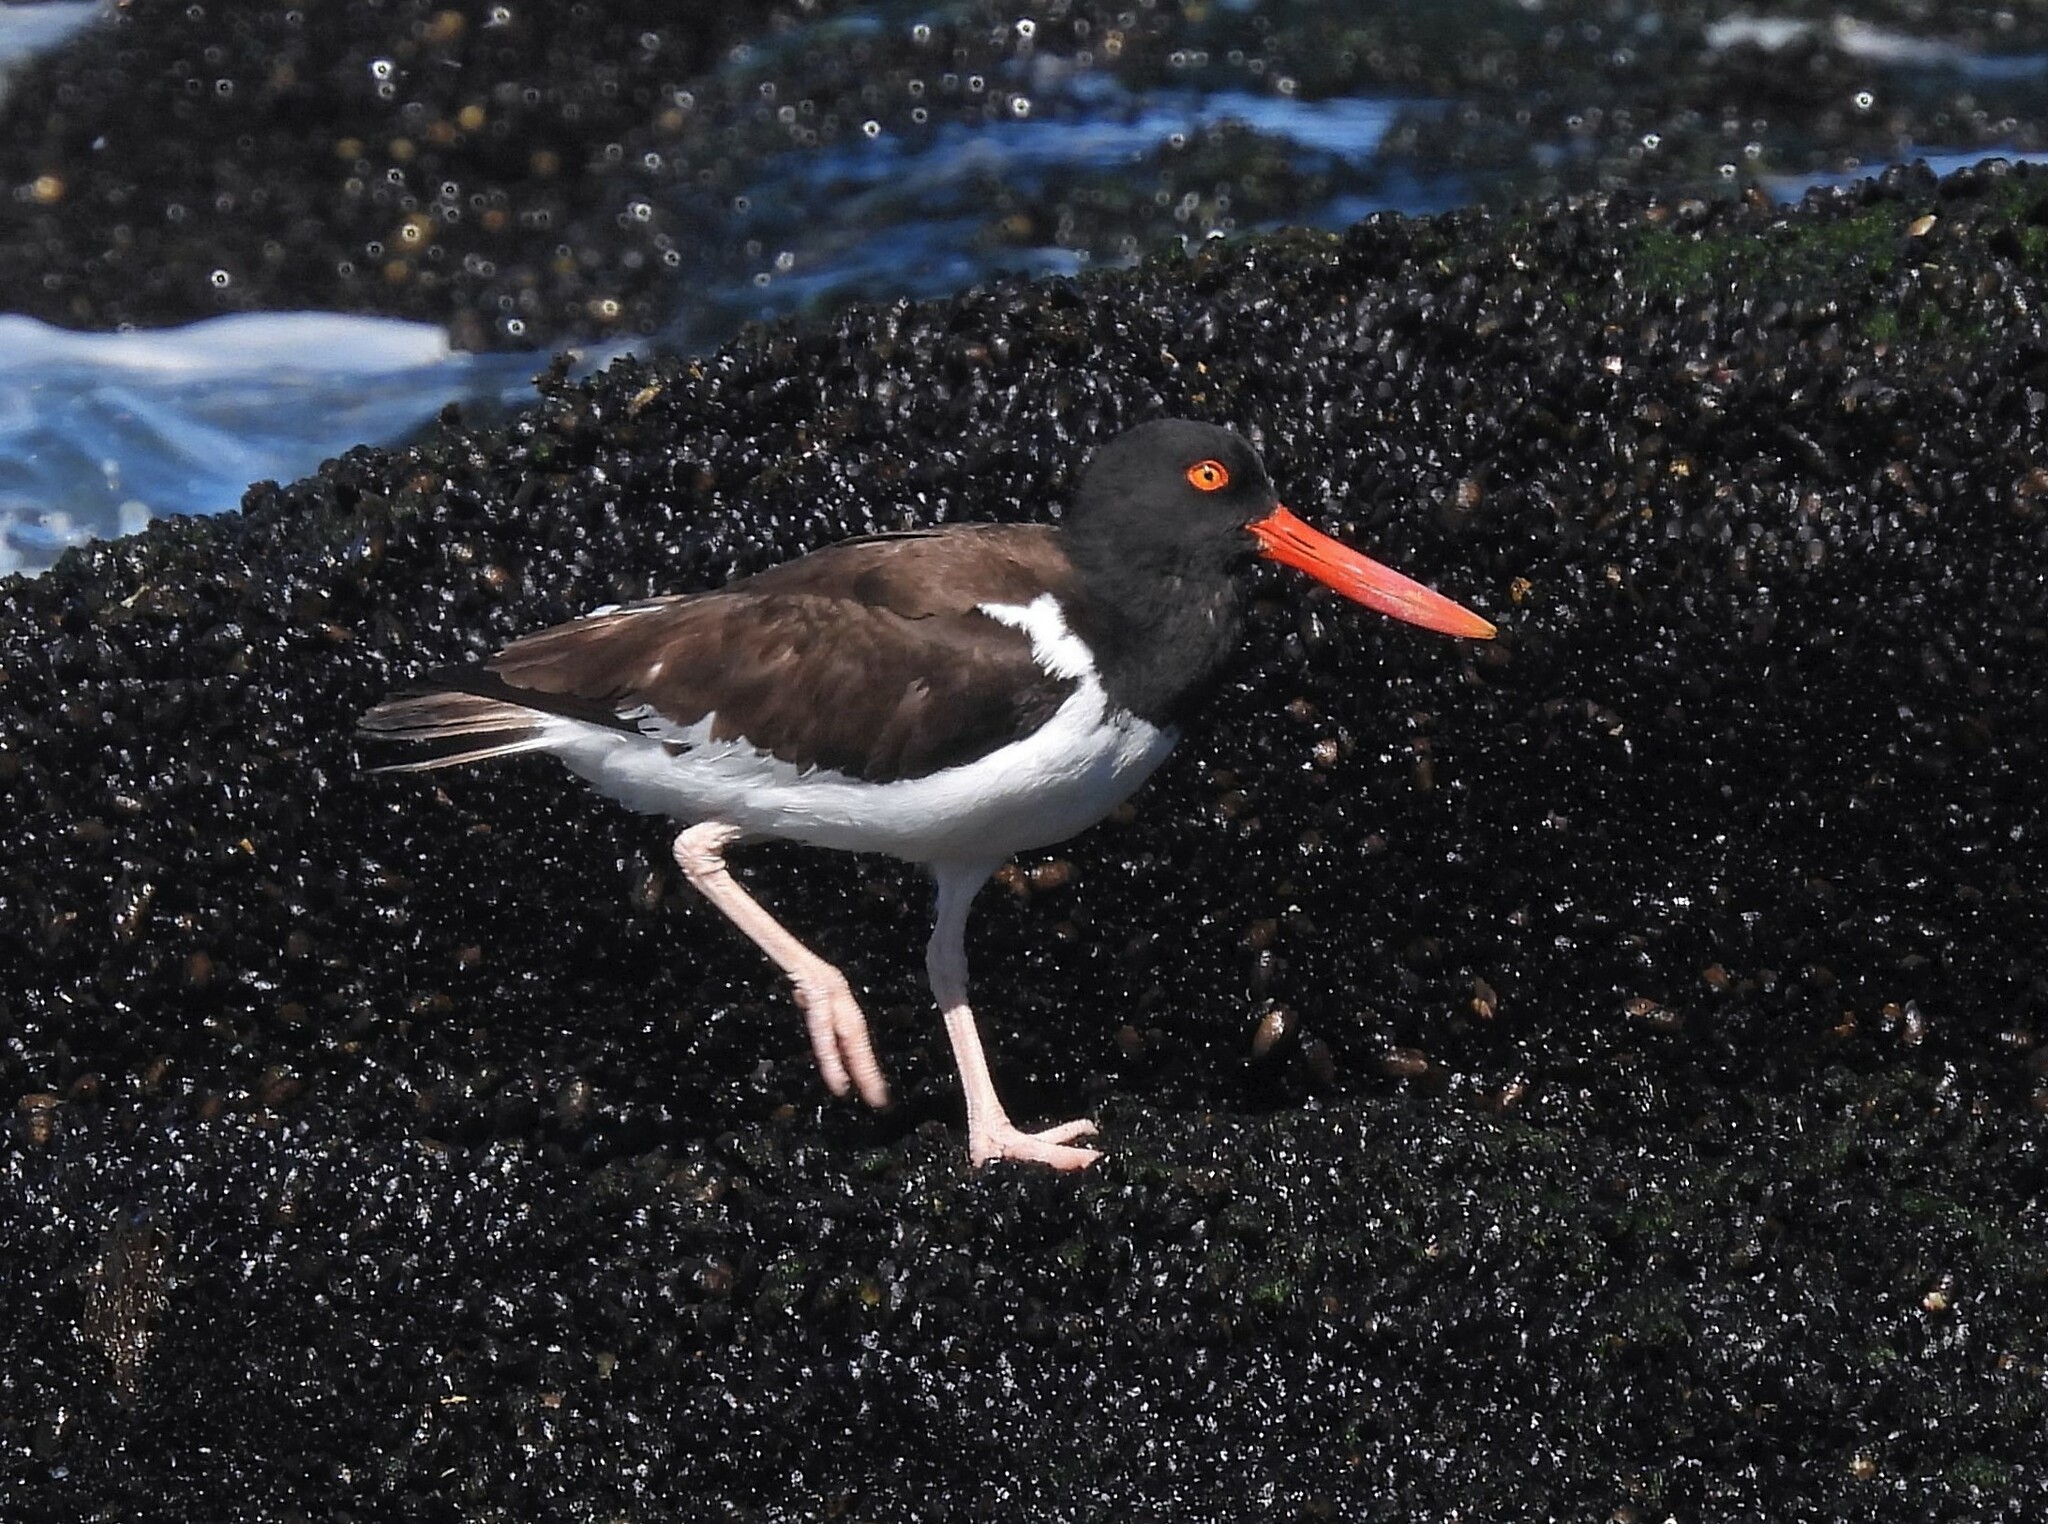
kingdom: Animalia
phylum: Chordata
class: Aves
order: Charadriiformes
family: Haematopodidae
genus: Haematopus
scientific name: Haematopus palliatus
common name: American oystercatcher
